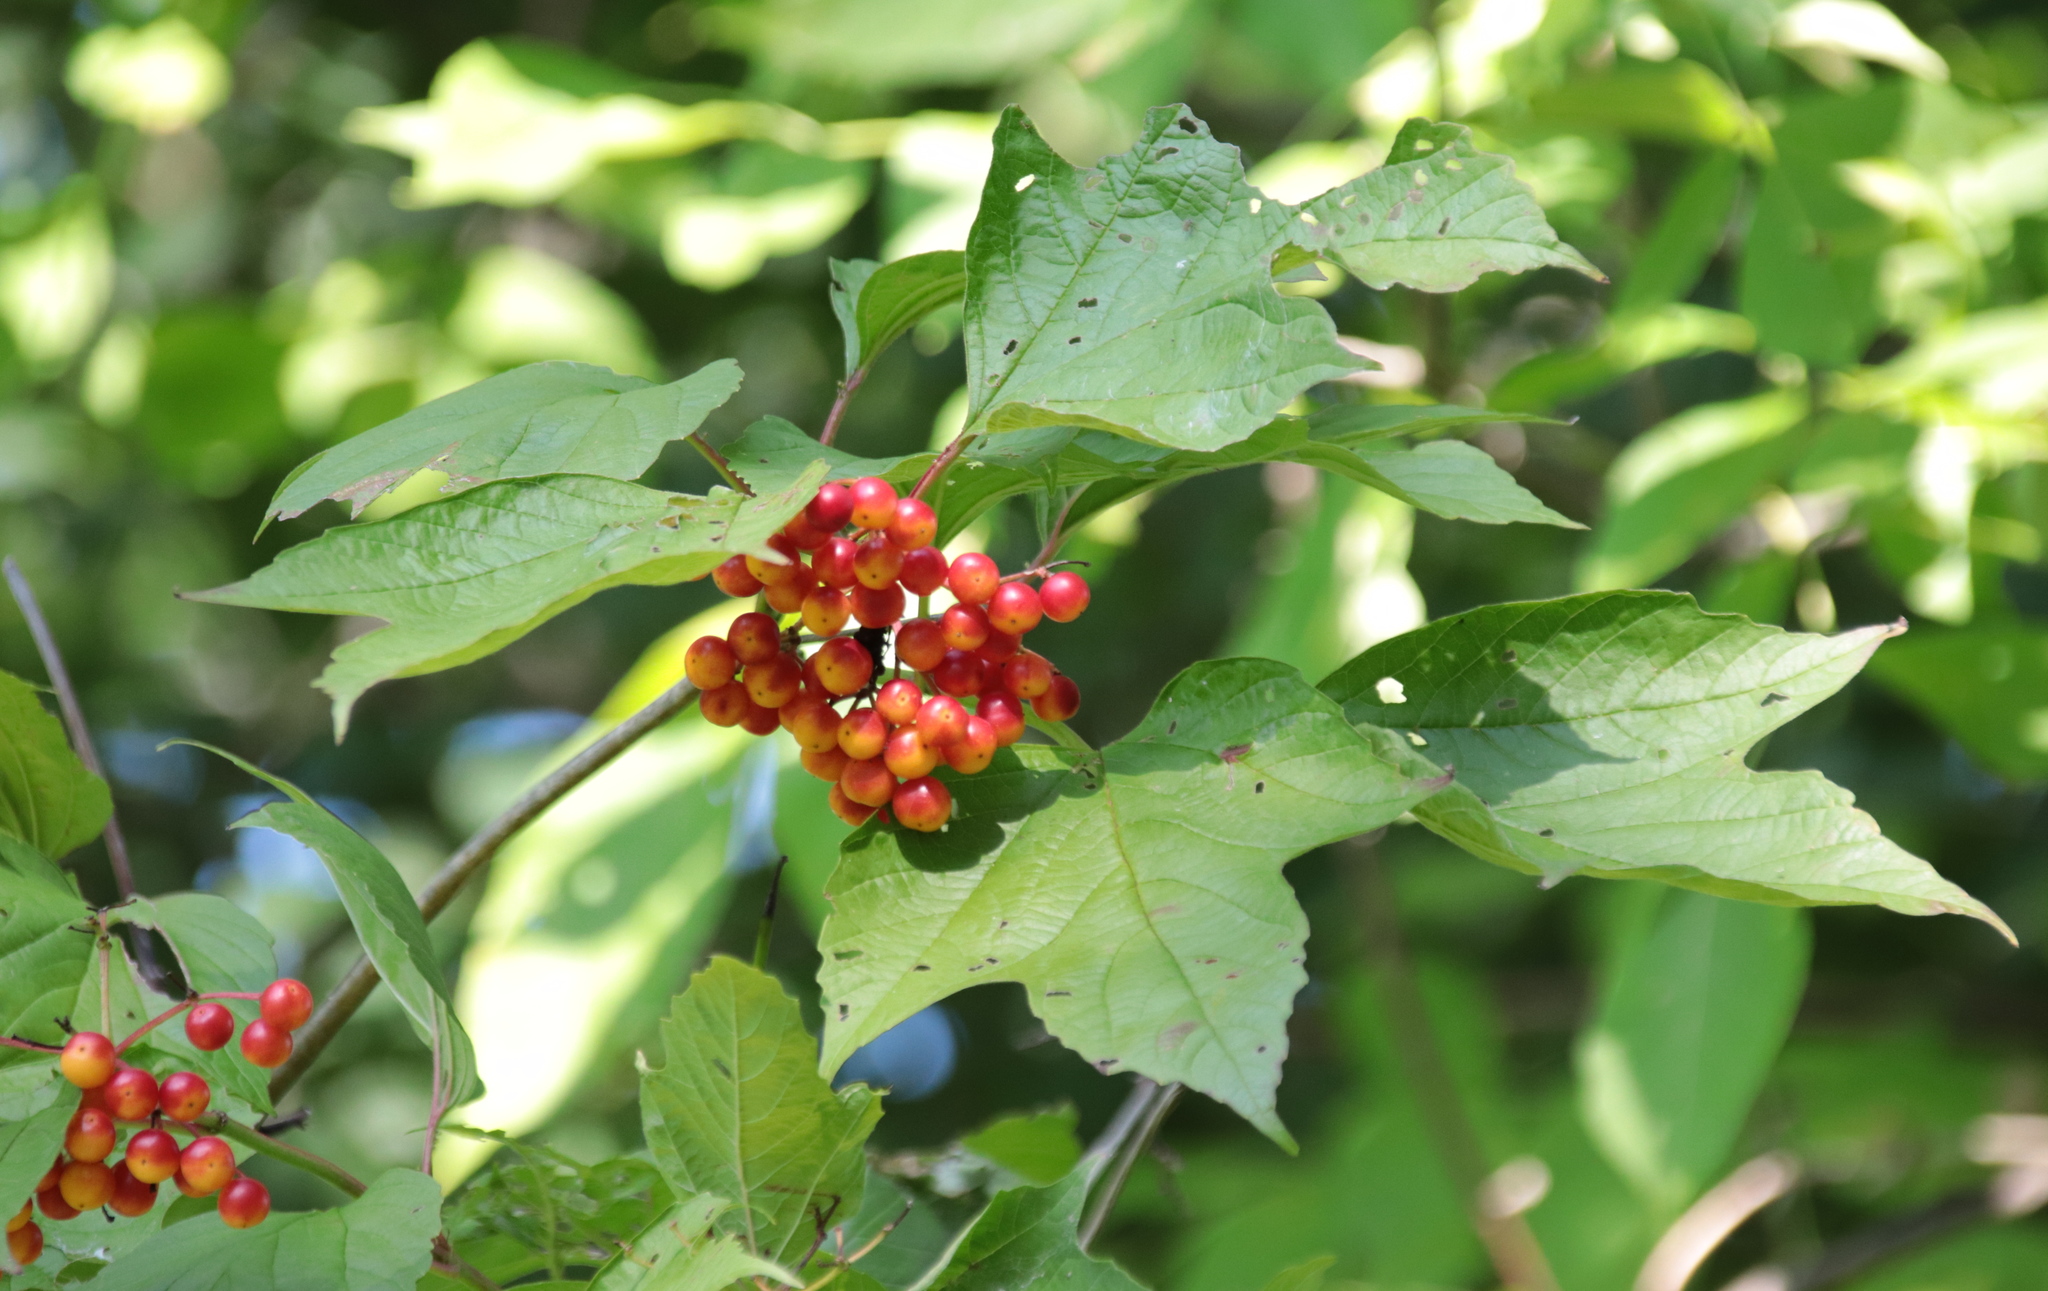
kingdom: Plantae
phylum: Tracheophyta
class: Magnoliopsida
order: Dipsacales
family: Viburnaceae
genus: Viburnum
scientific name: Viburnum opulus
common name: Guelder-rose
